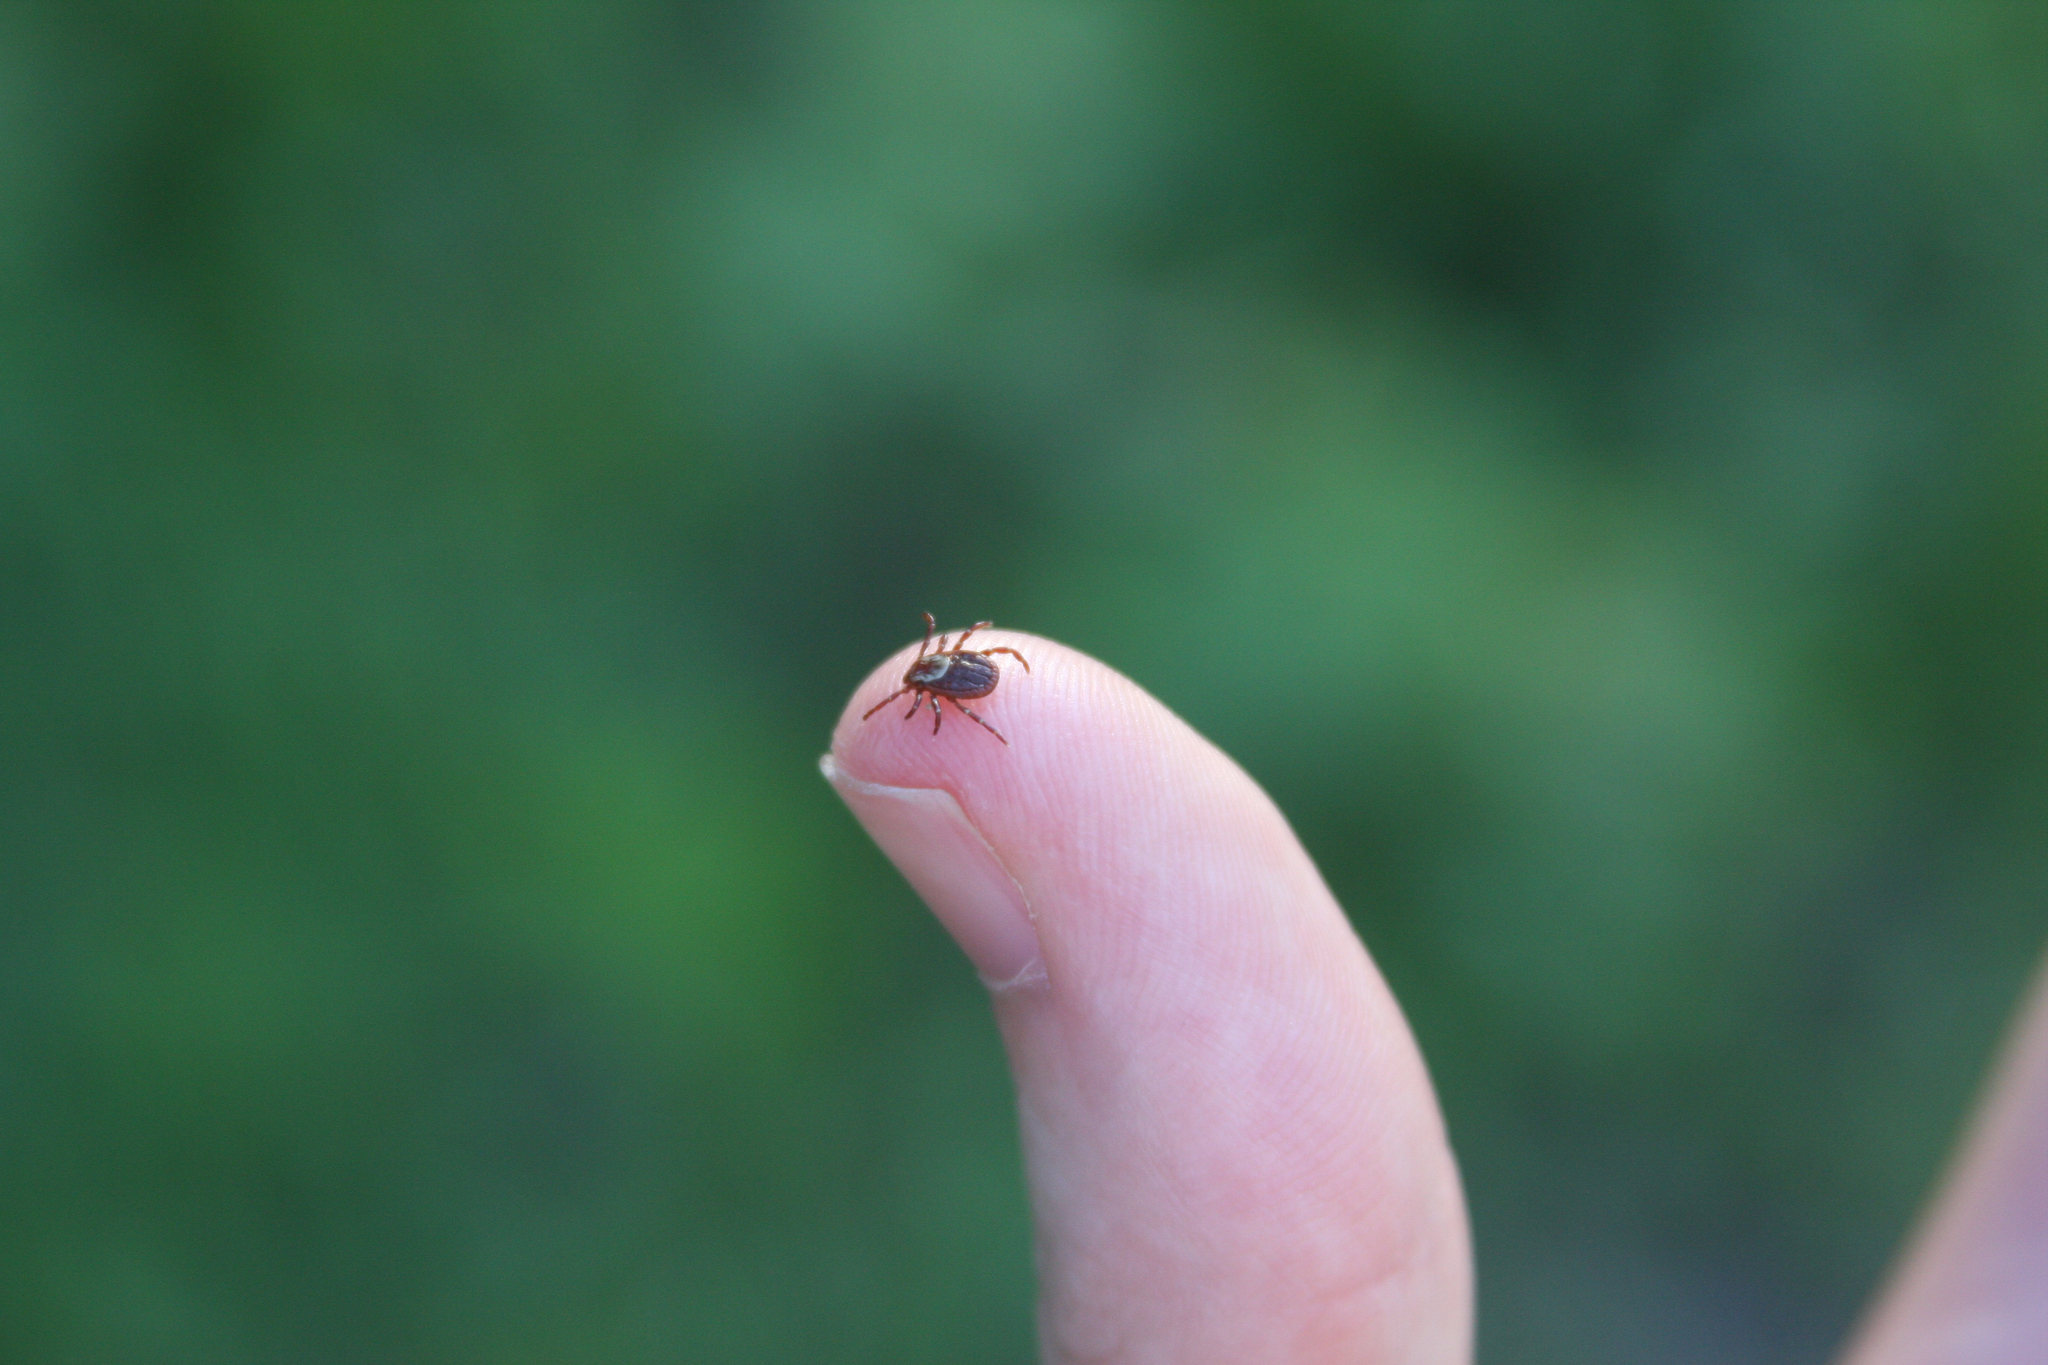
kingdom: Animalia
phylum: Arthropoda
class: Arachnida
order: Ixodida
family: Ixodidae
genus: Dermacentor
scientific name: Dermacentor variabilis
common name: American dog tick
